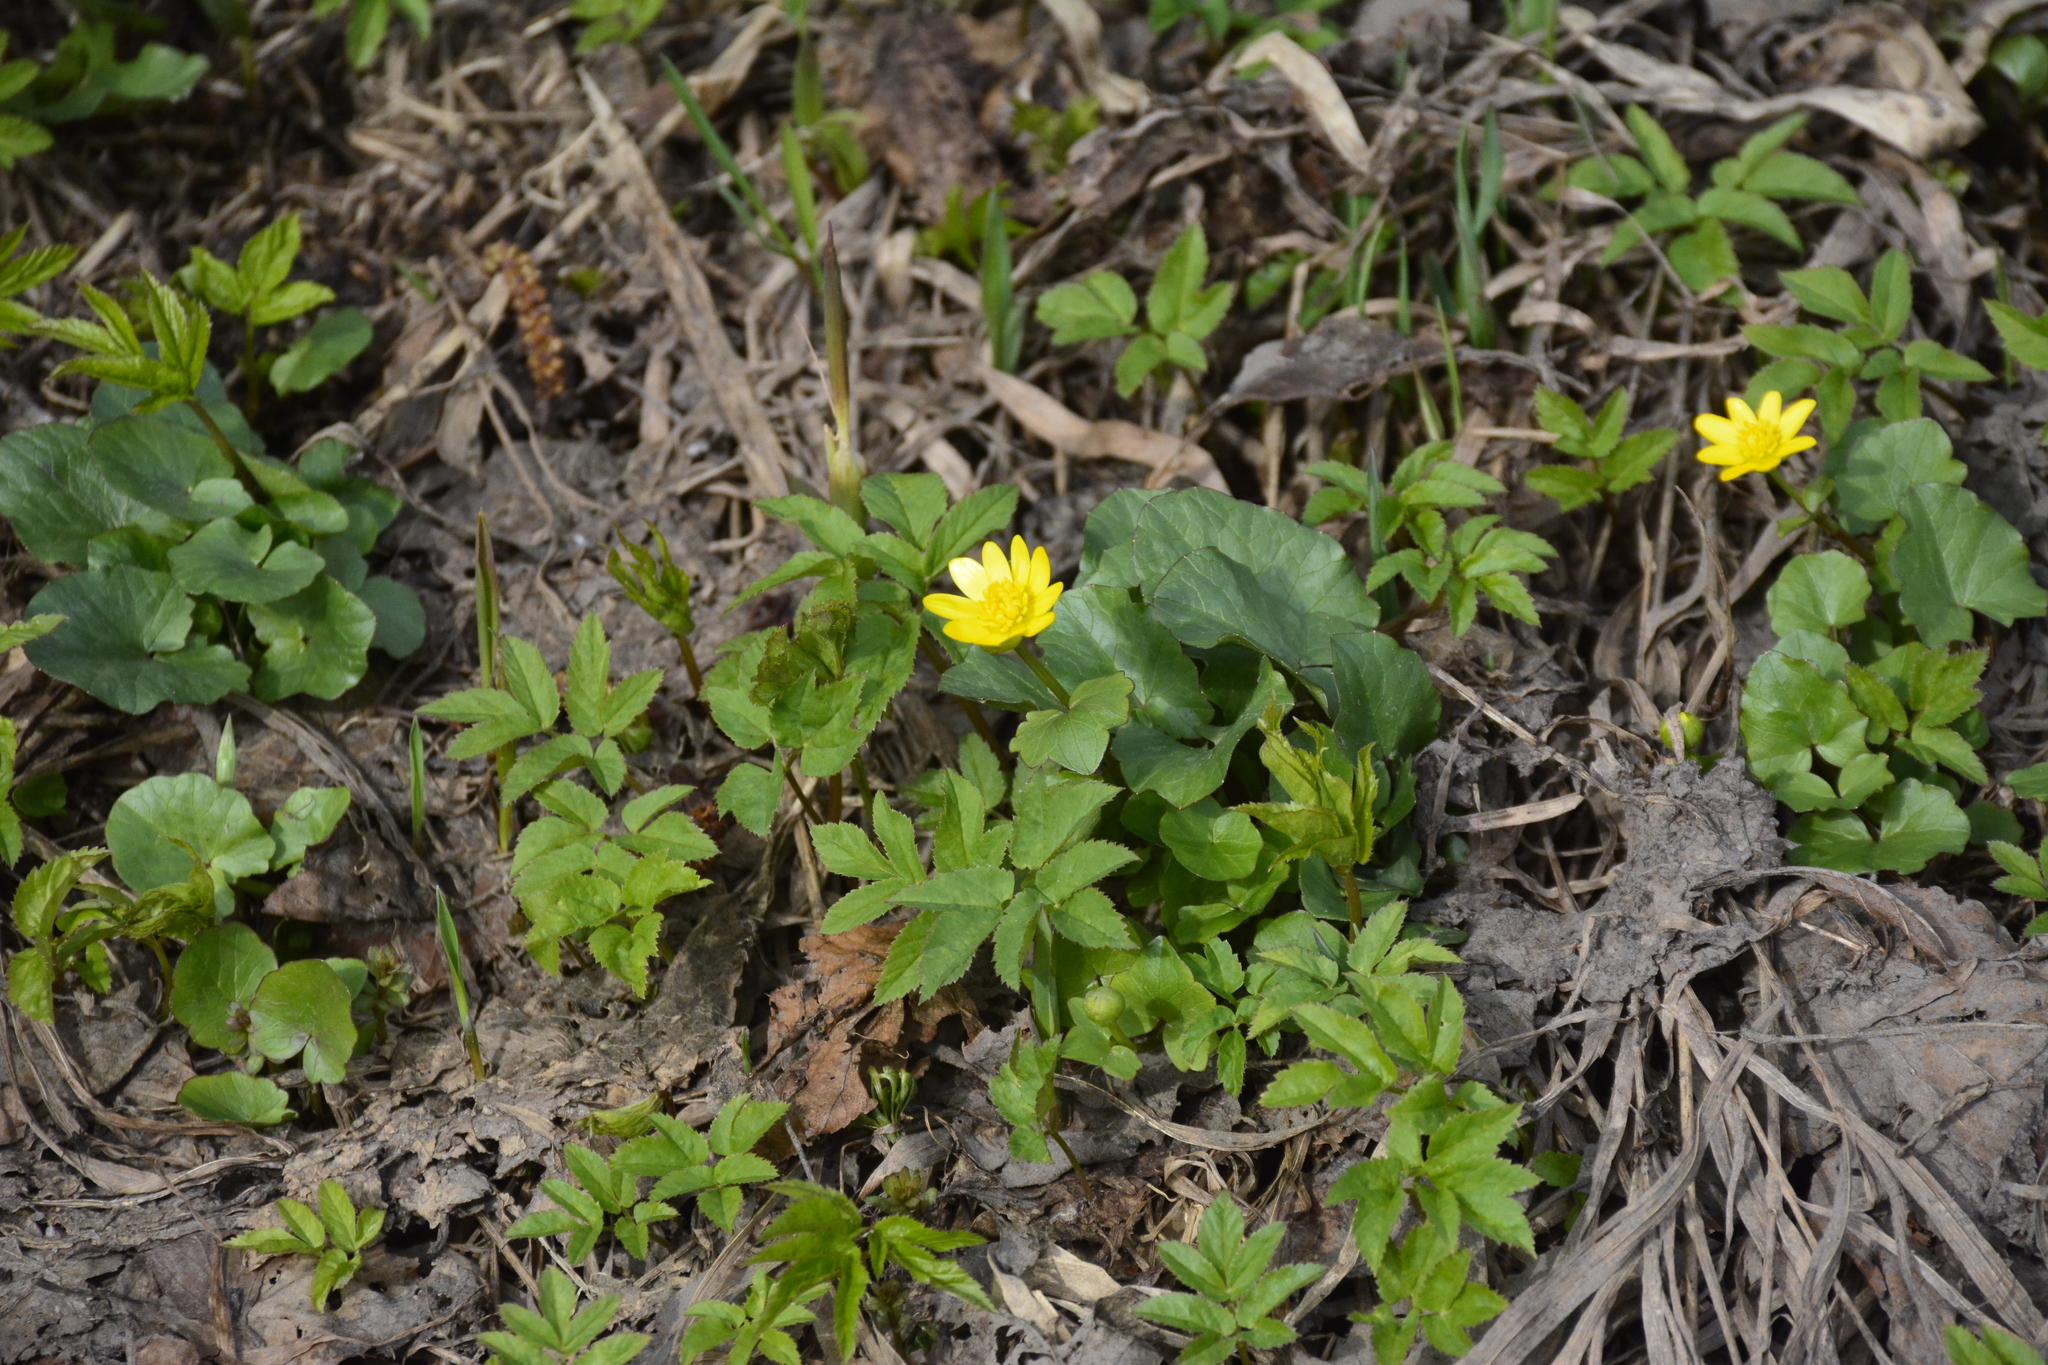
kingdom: Plantae
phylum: Tracheophyta
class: Magnoliopsida
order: Ranunculales
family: Ranunculaceae
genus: Ficaria
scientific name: Ficaria verna
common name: Lesser celandine
